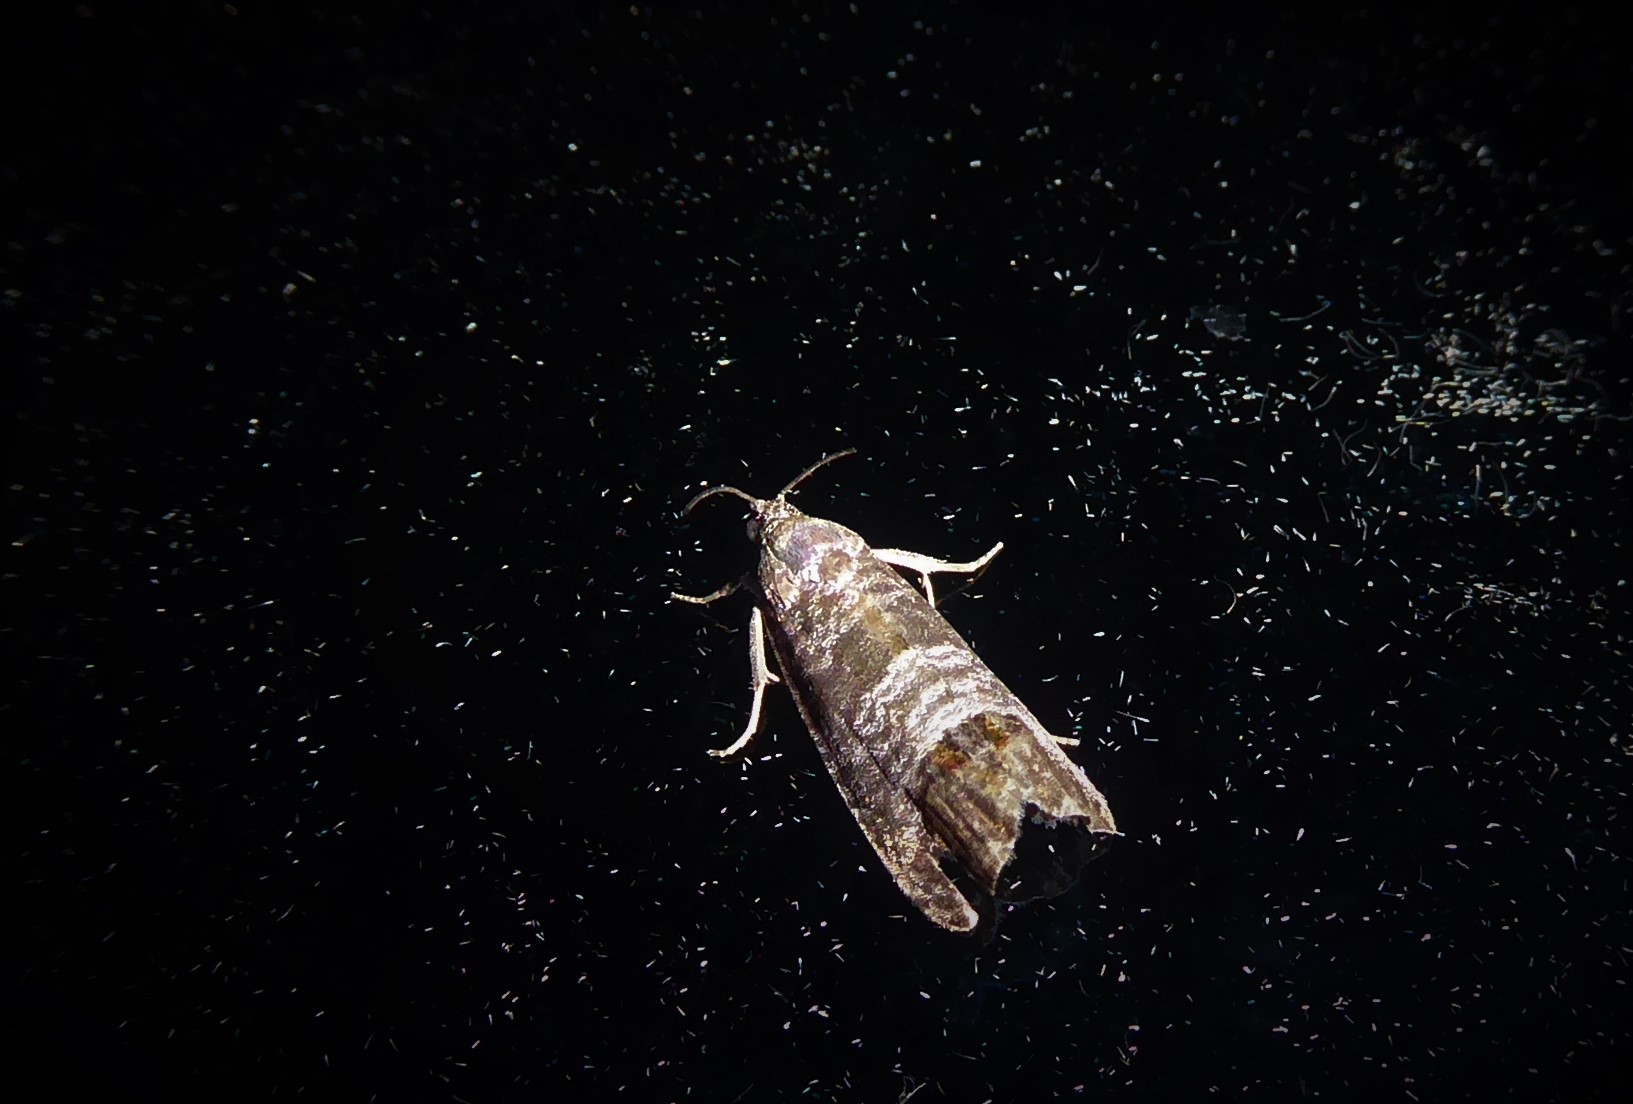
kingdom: Animalia
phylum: Arthropoda
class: Insecta
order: Lepidoptera
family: Tortricidae
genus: Cydia
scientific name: Cydia pomonella
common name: Codling moth
